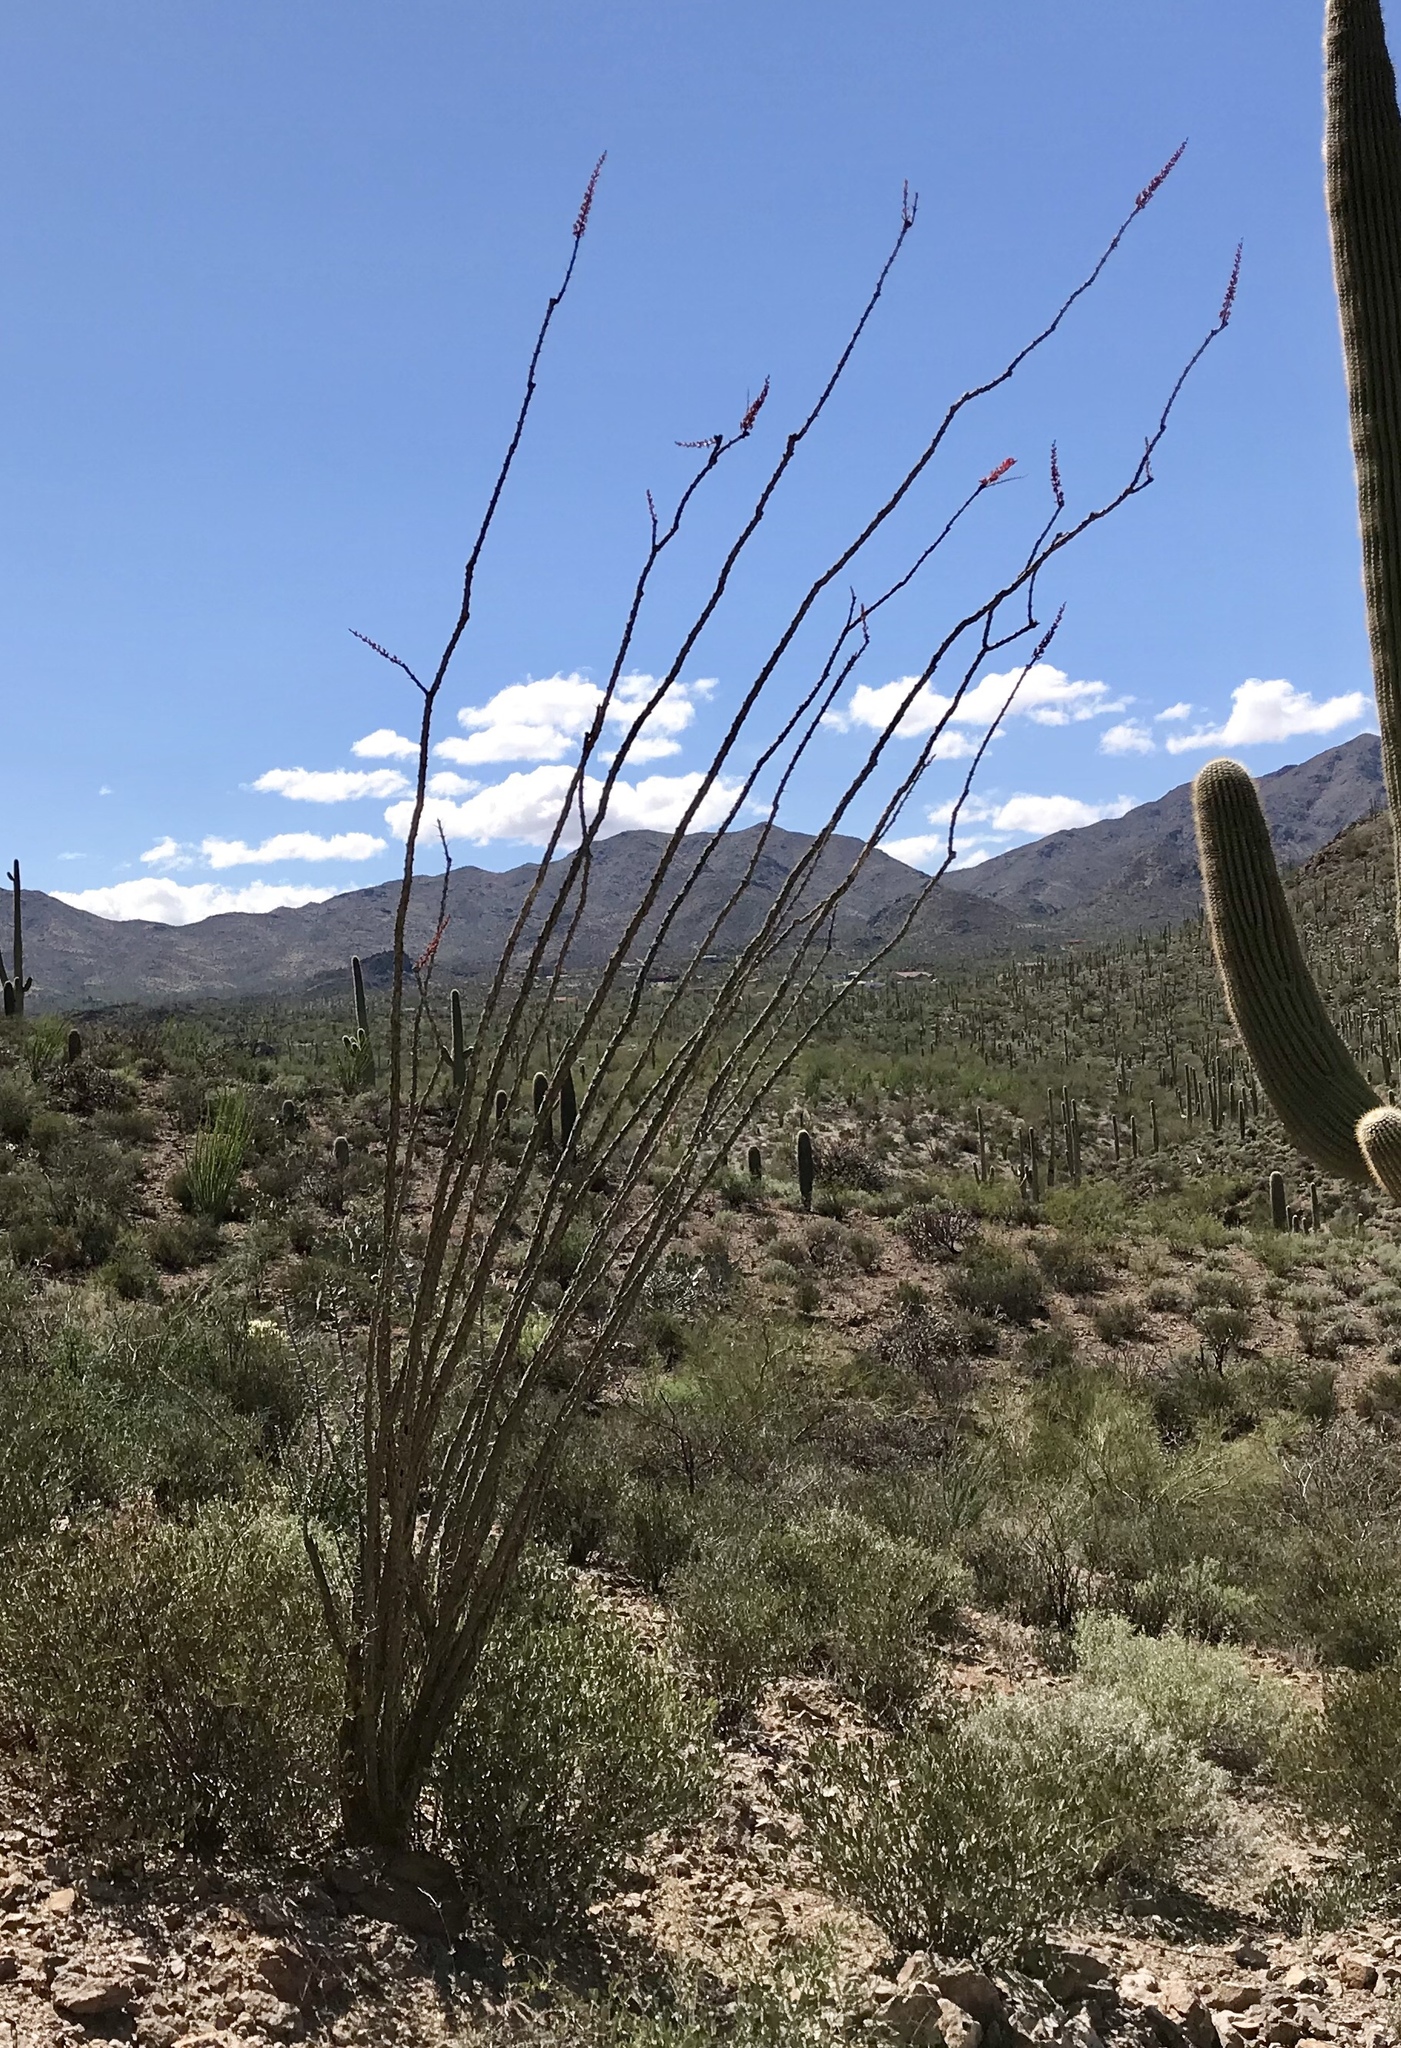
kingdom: Plantae
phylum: Tracheophyta
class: Magnoliopsida
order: Ericales
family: Fouquieriaceae
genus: Fouquieria
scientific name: Fouquieria splendens
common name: Vine-cactus
